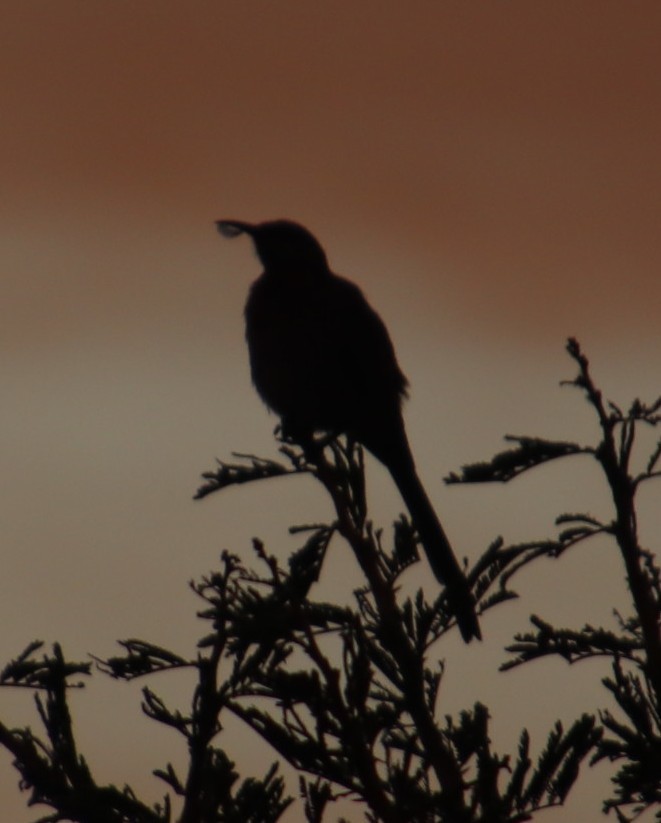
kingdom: Animalia
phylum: Chordata
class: Aves
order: Passeriformes
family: Nectariniidae
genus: Nectarinia
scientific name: Nectarinia famosa
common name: Malachite sunbird
